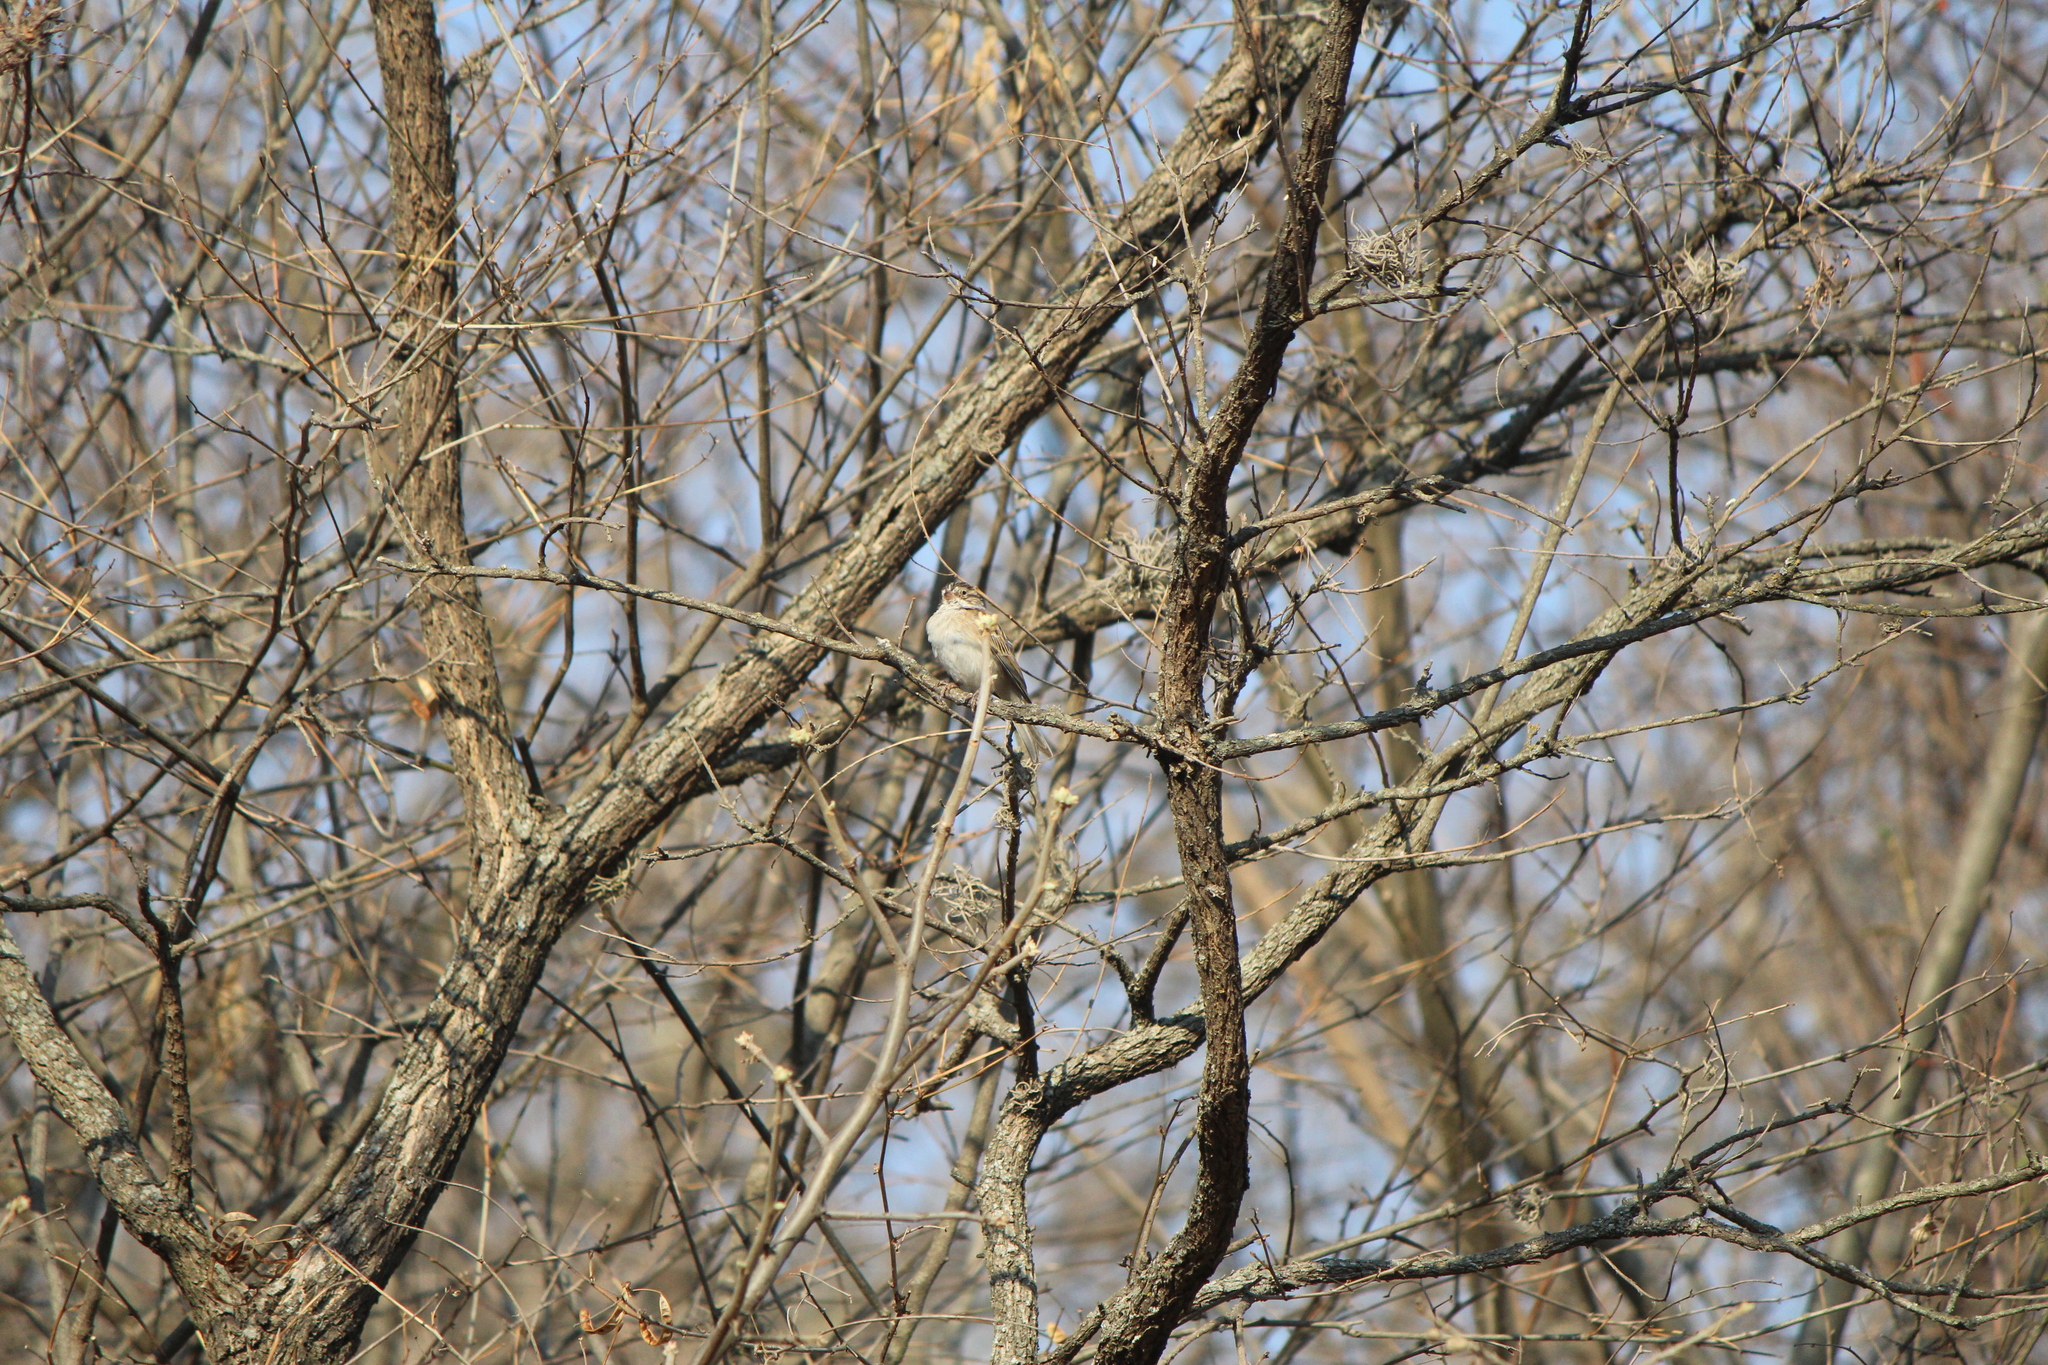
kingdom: Animalia
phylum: Chordata
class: Aves
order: Passeriformes
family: Passerellidae
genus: Spizella
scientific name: Spizella pallida
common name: Clay-colored sparrow
